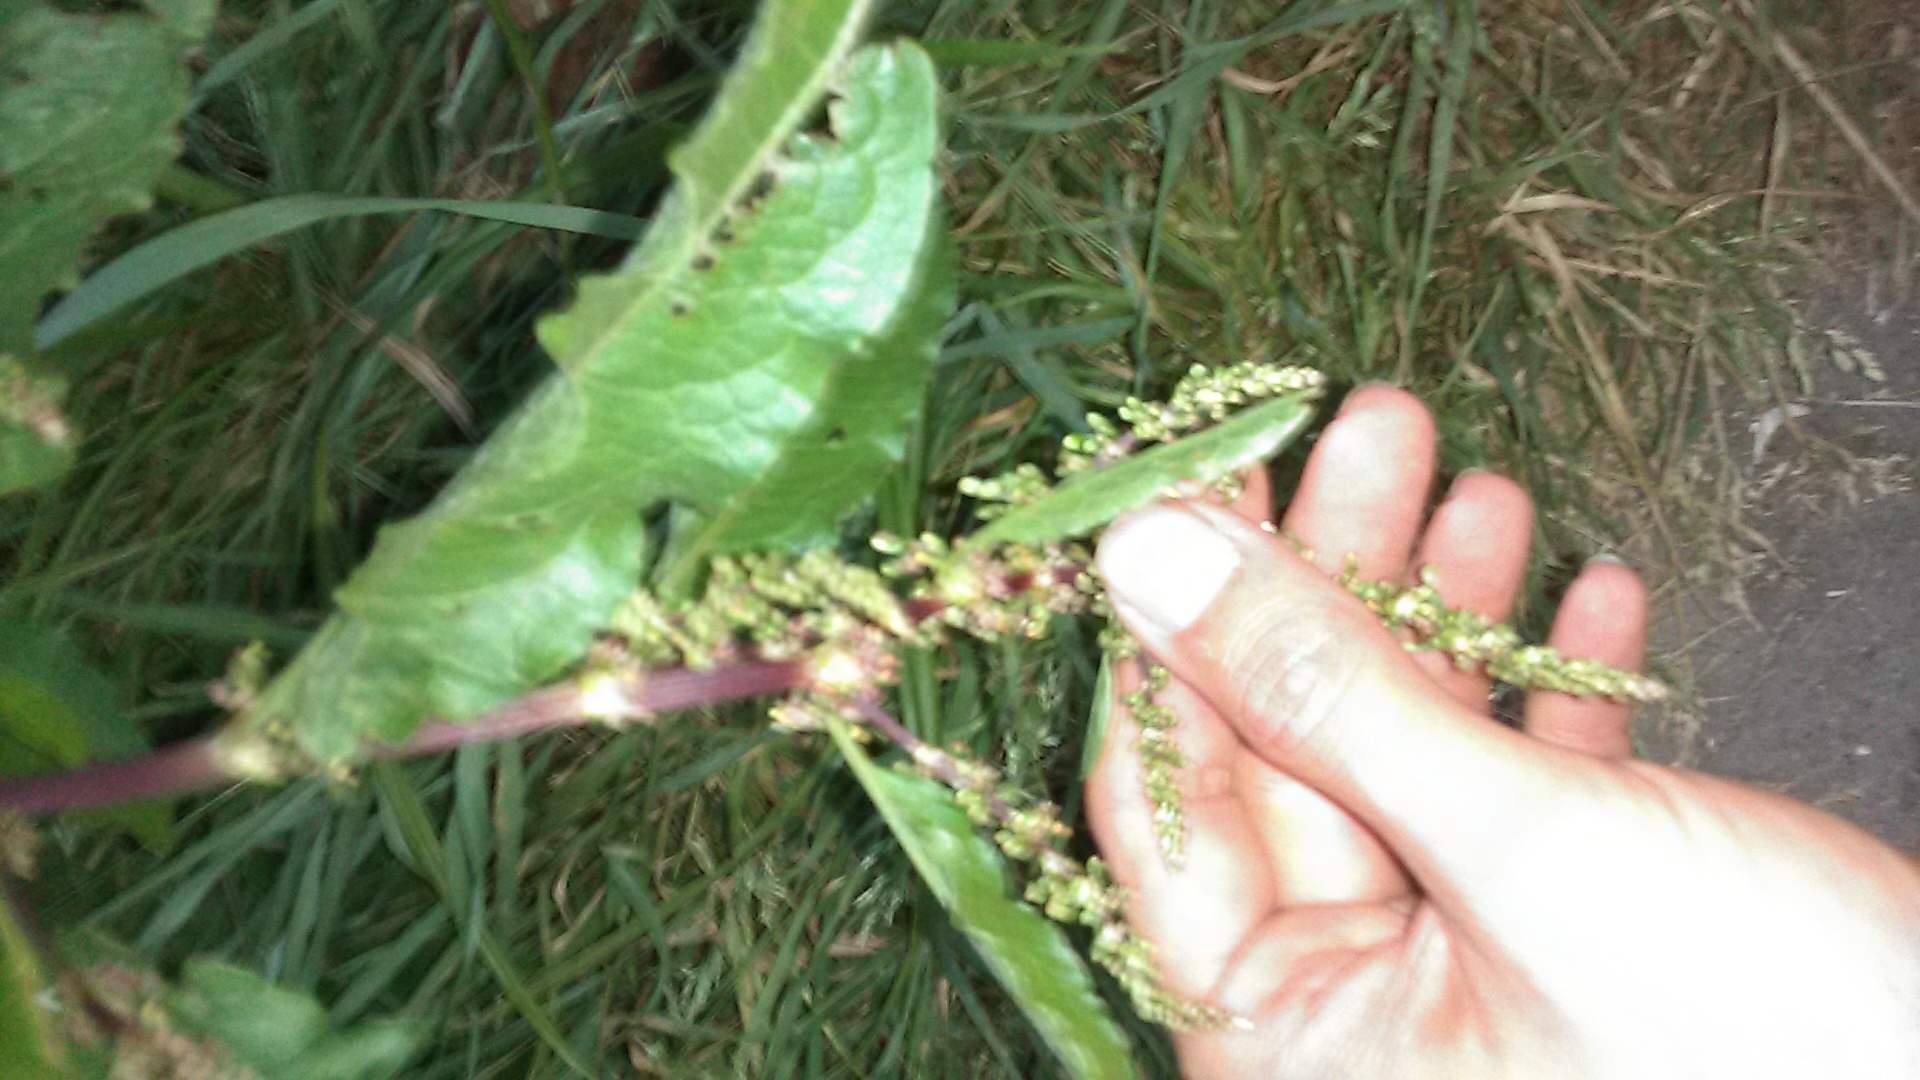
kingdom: Plantae
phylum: Tracheophyta
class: Magnoliopsida
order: Caryophyllales
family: Polygonaceae
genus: Rumex
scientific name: Rumex obtusifolius
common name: Bitter dock
